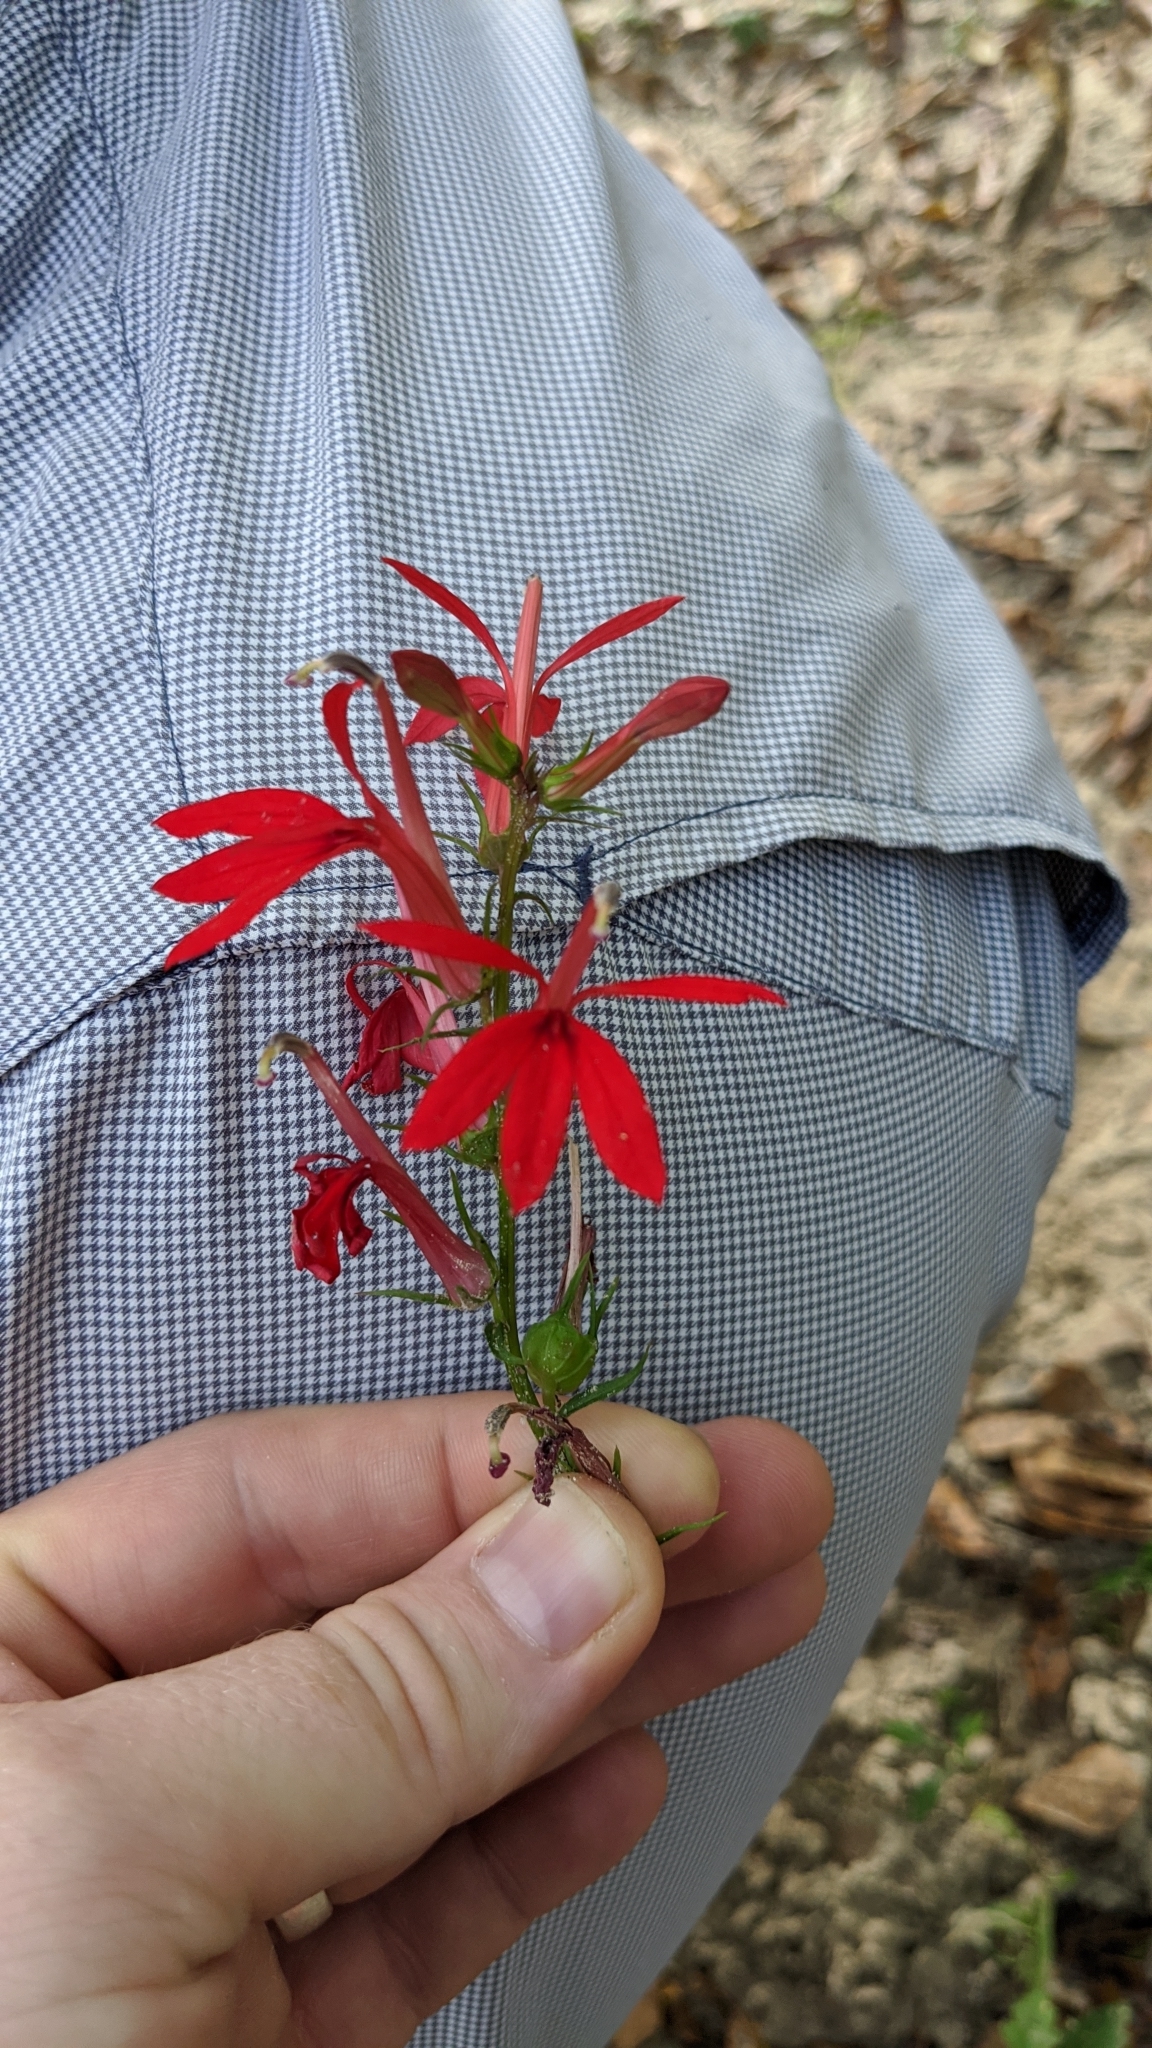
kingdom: Plantae
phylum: Tracheophyta
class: Magnoliopsida
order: Asterales
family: Campanulaceae
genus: Lobelia
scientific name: Lobelia cardinalis
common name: Cardinal flower
